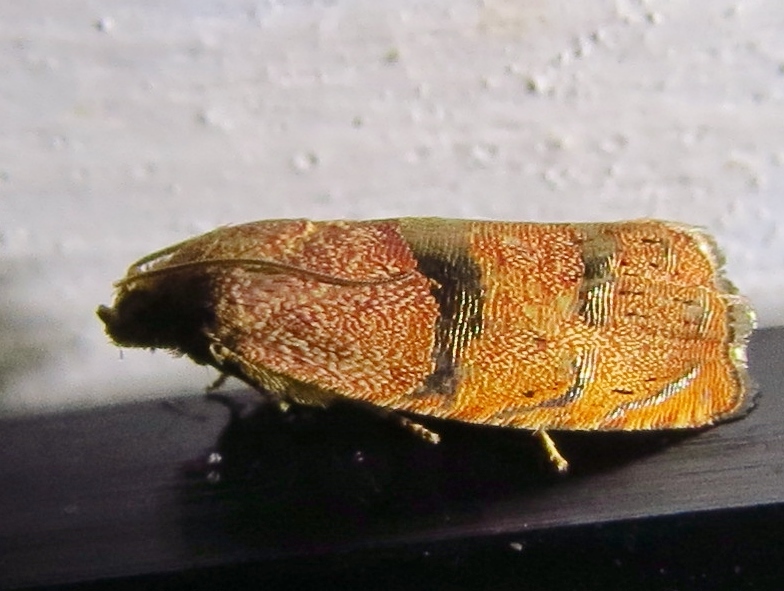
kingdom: Animalia
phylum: Arthropoda
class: Insecta
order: Lepidoptera
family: Tortricidae
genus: Cydia
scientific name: Cydia latiferreana
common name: Filbertworm moth
